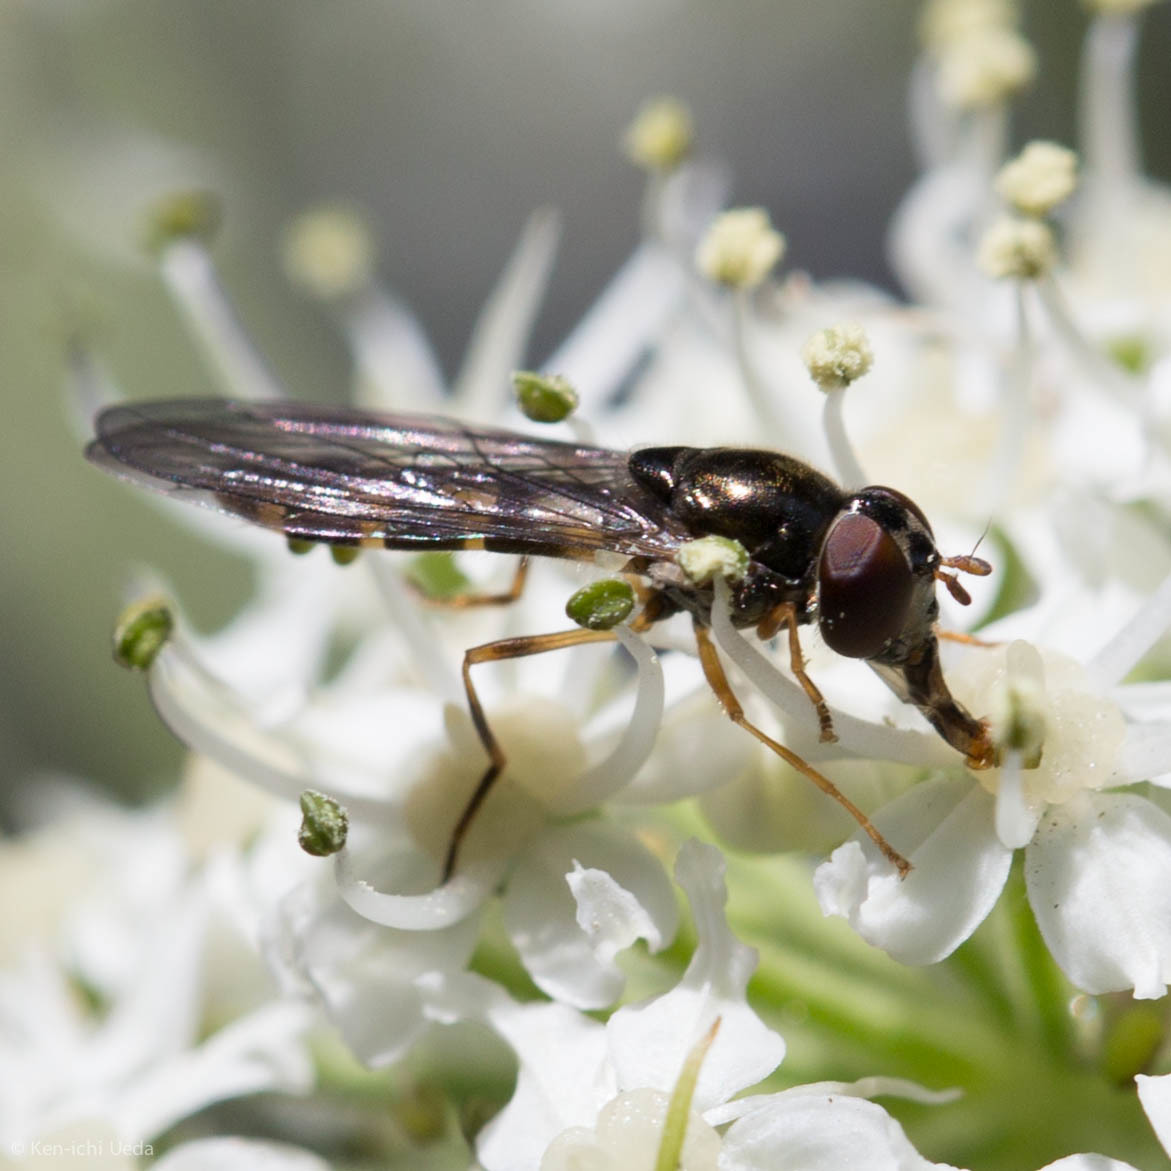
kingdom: Animalia
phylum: Arthropoda
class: Insecta
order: Diptera
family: Syrphidae
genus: Melanostoma
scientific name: Melanostoma mellina
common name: Hover fly
